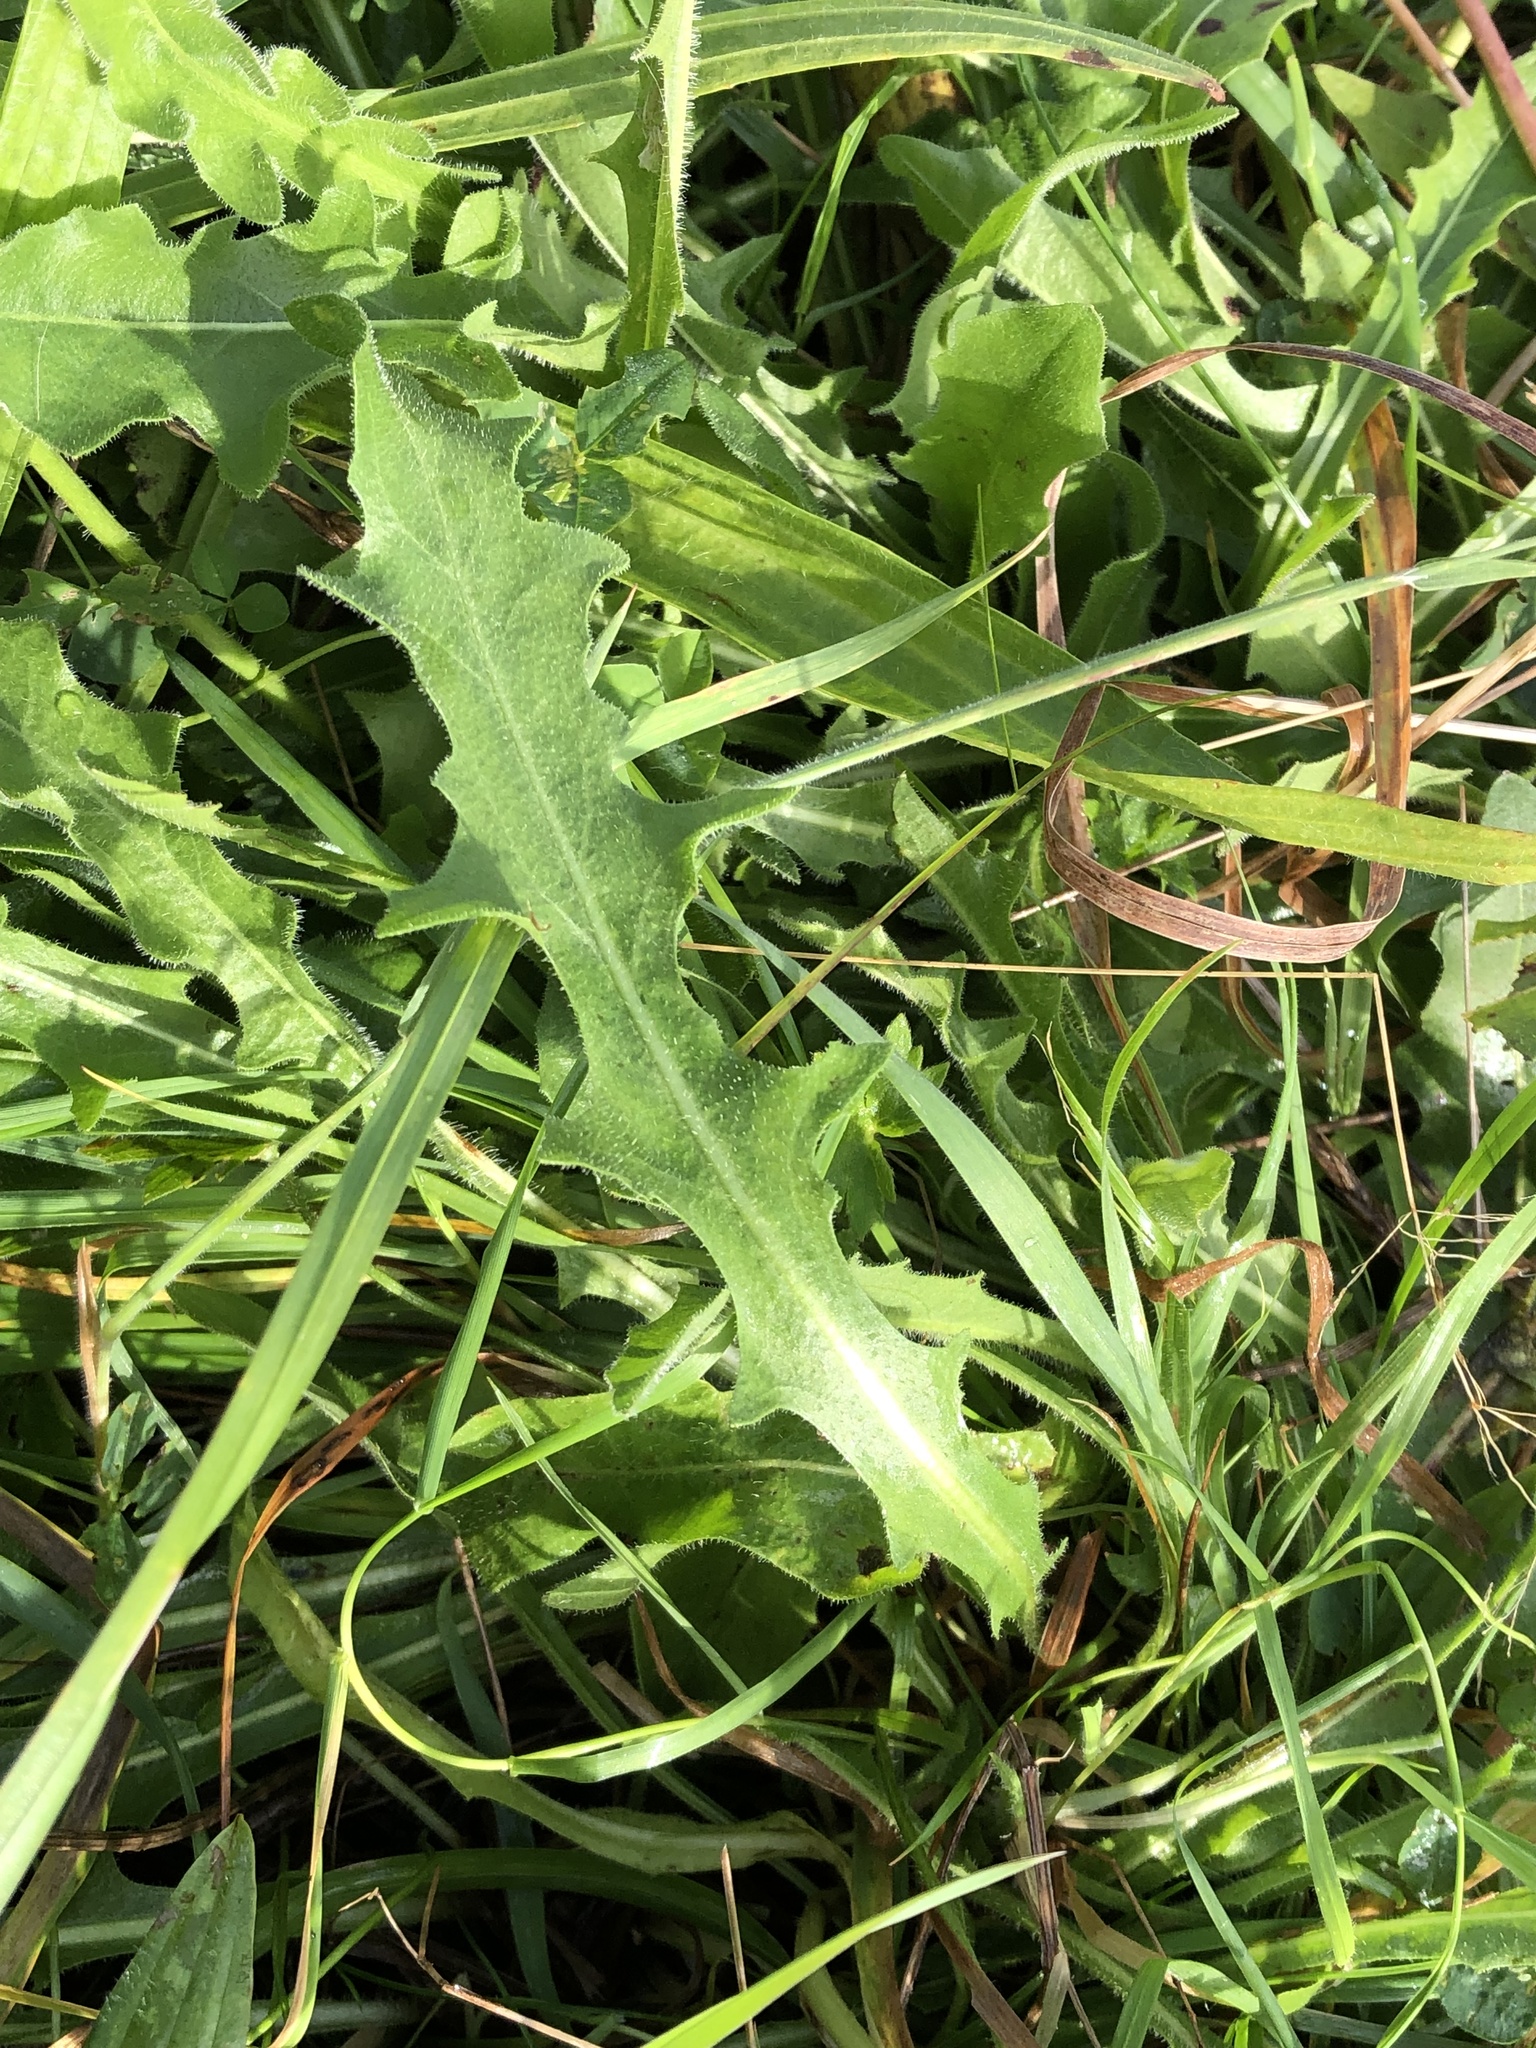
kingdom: Plantae
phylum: Tracheophyta
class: Magnoliopsida
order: Asterales
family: Asteraceae
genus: Leontodon
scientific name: Leontodon hispidus
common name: Rough hawkbit
